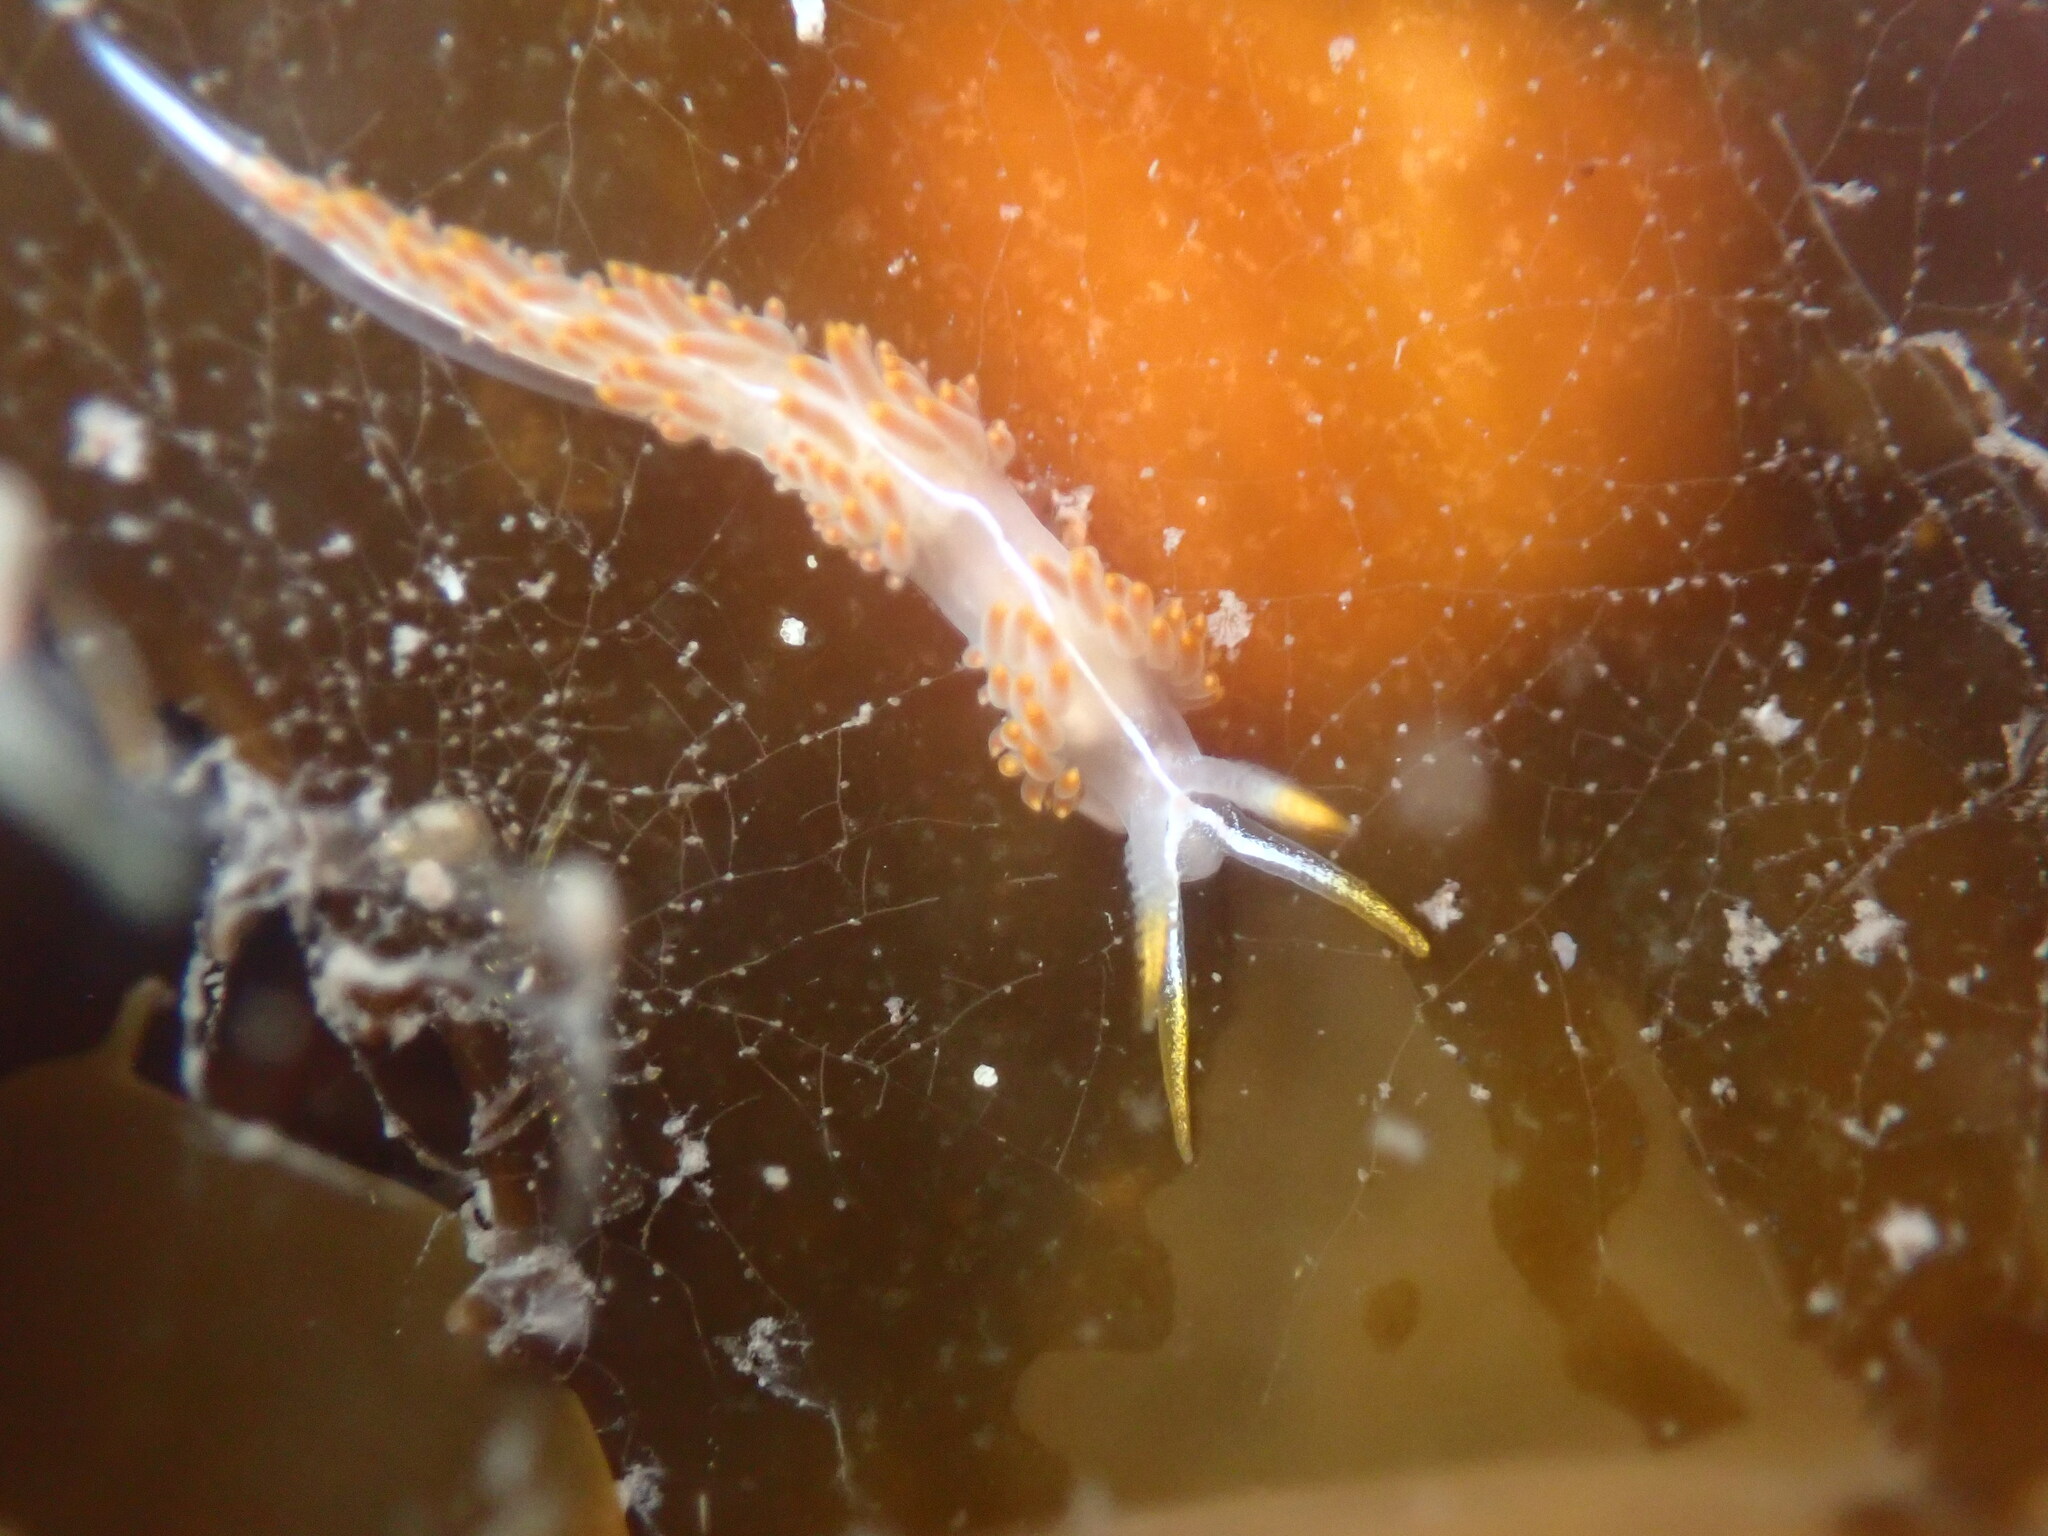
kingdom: Animalia
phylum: Mollusca
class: Gastropoda
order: Nudibranchia
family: Coryphellidae
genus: Coryphella
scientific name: Coryphella trilineata
